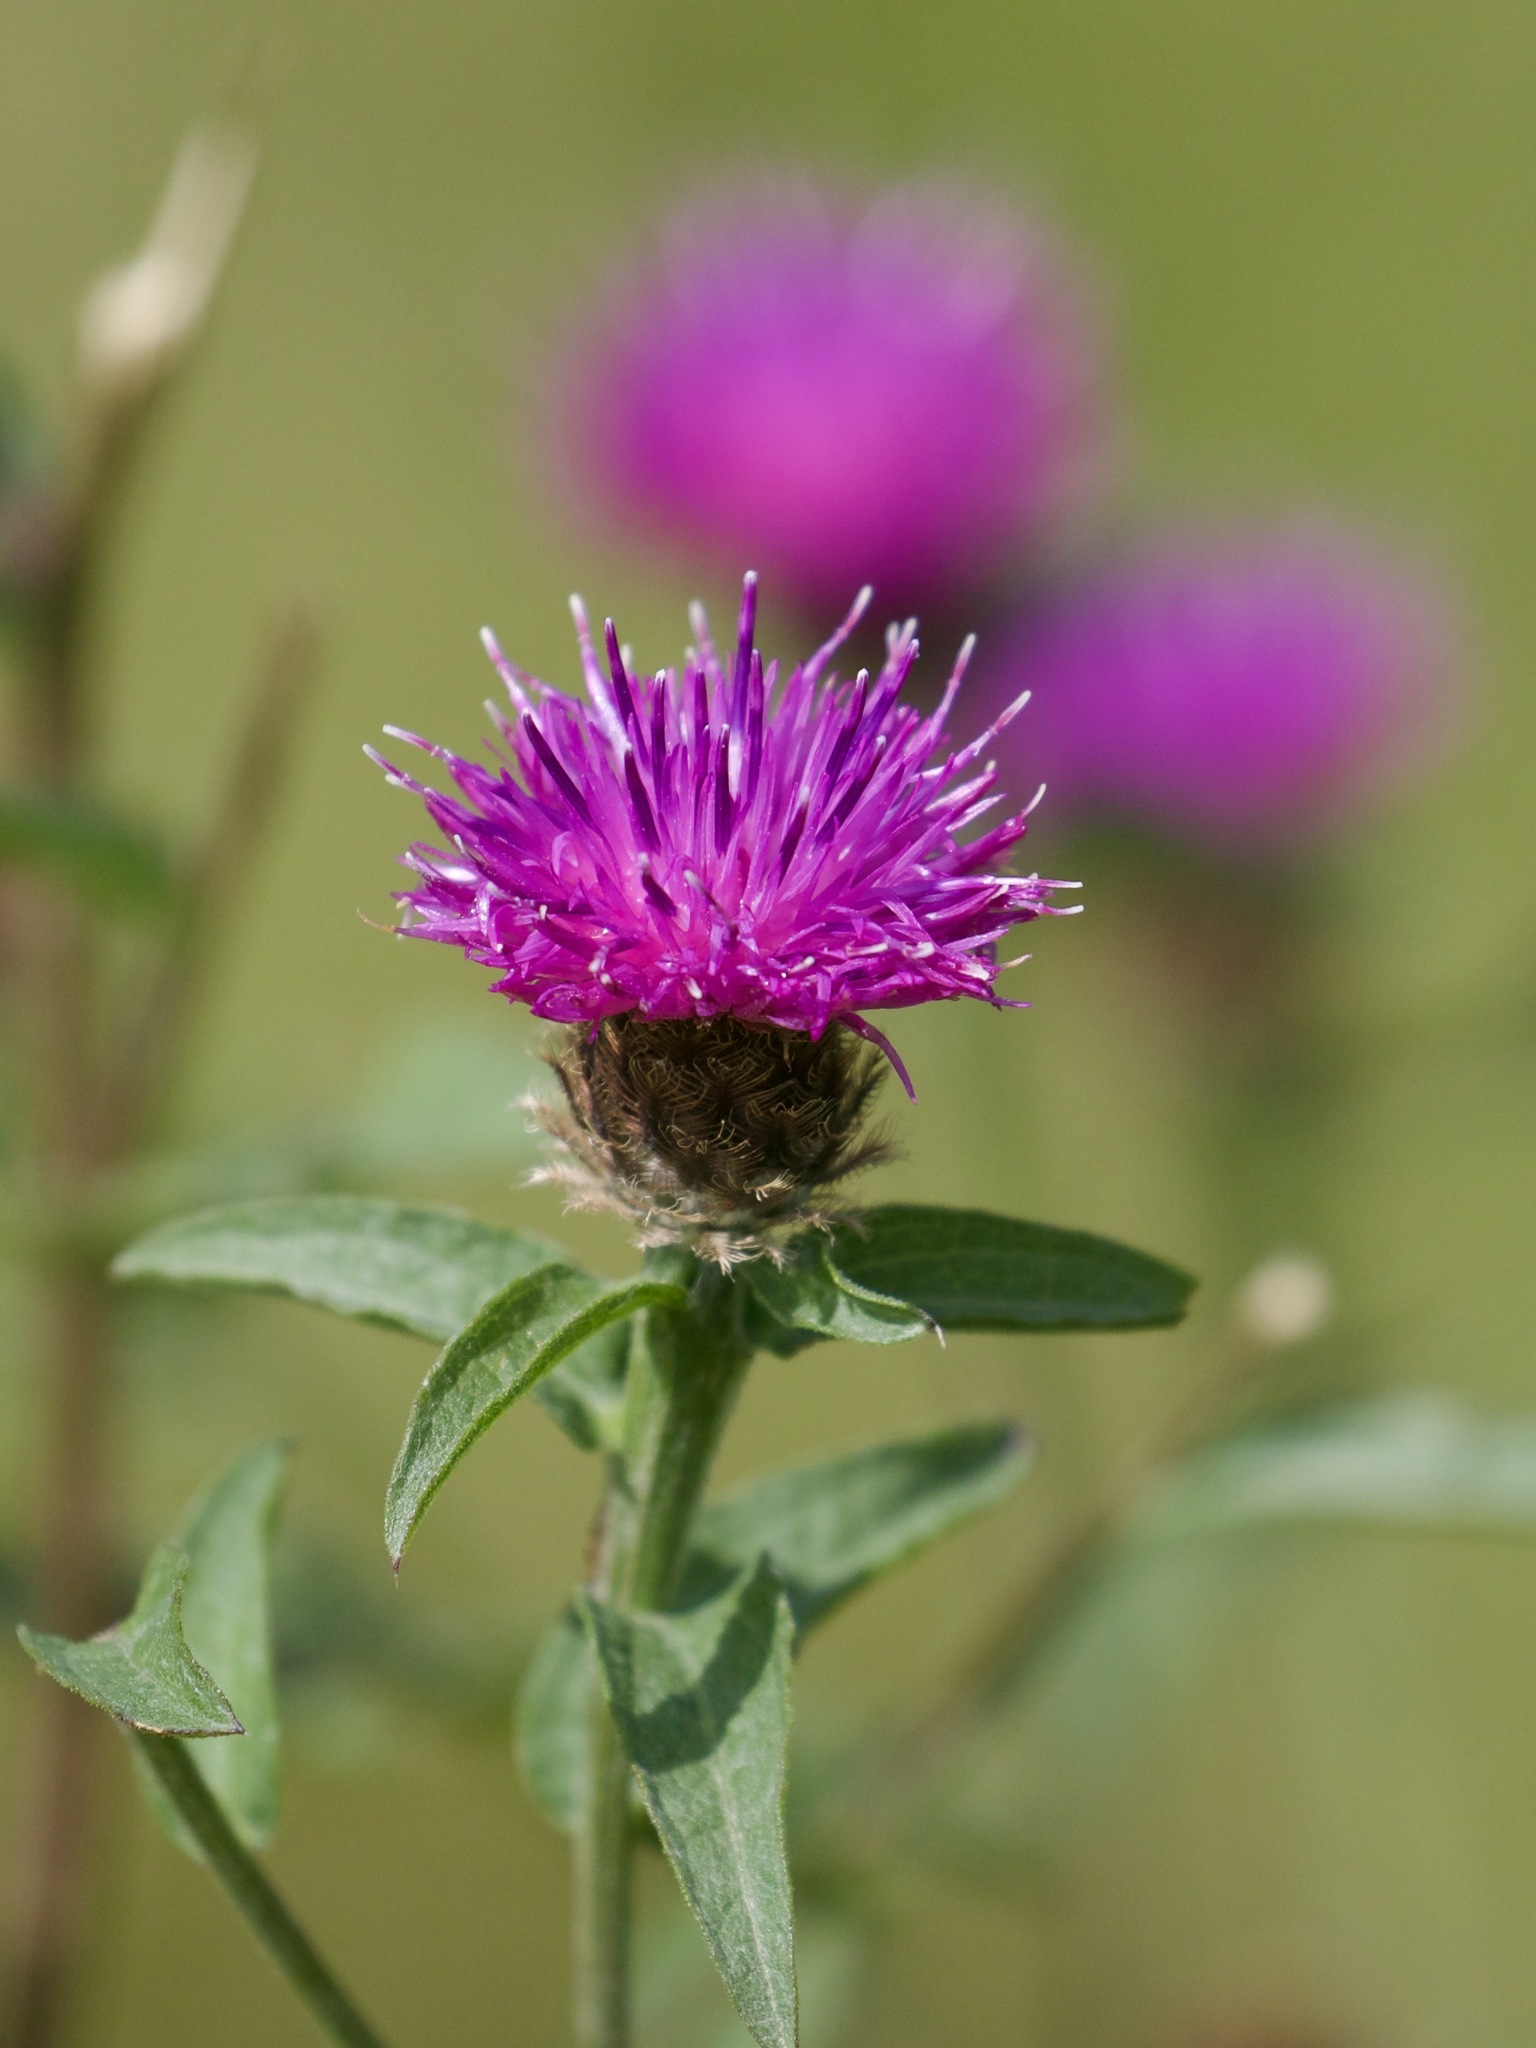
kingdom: Plantae
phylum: Tracheophyta
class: Magnoliopsida
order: Asterales
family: Asteraceae
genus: Centaurea
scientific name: Centaurea nigra
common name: Lesser knapweed
